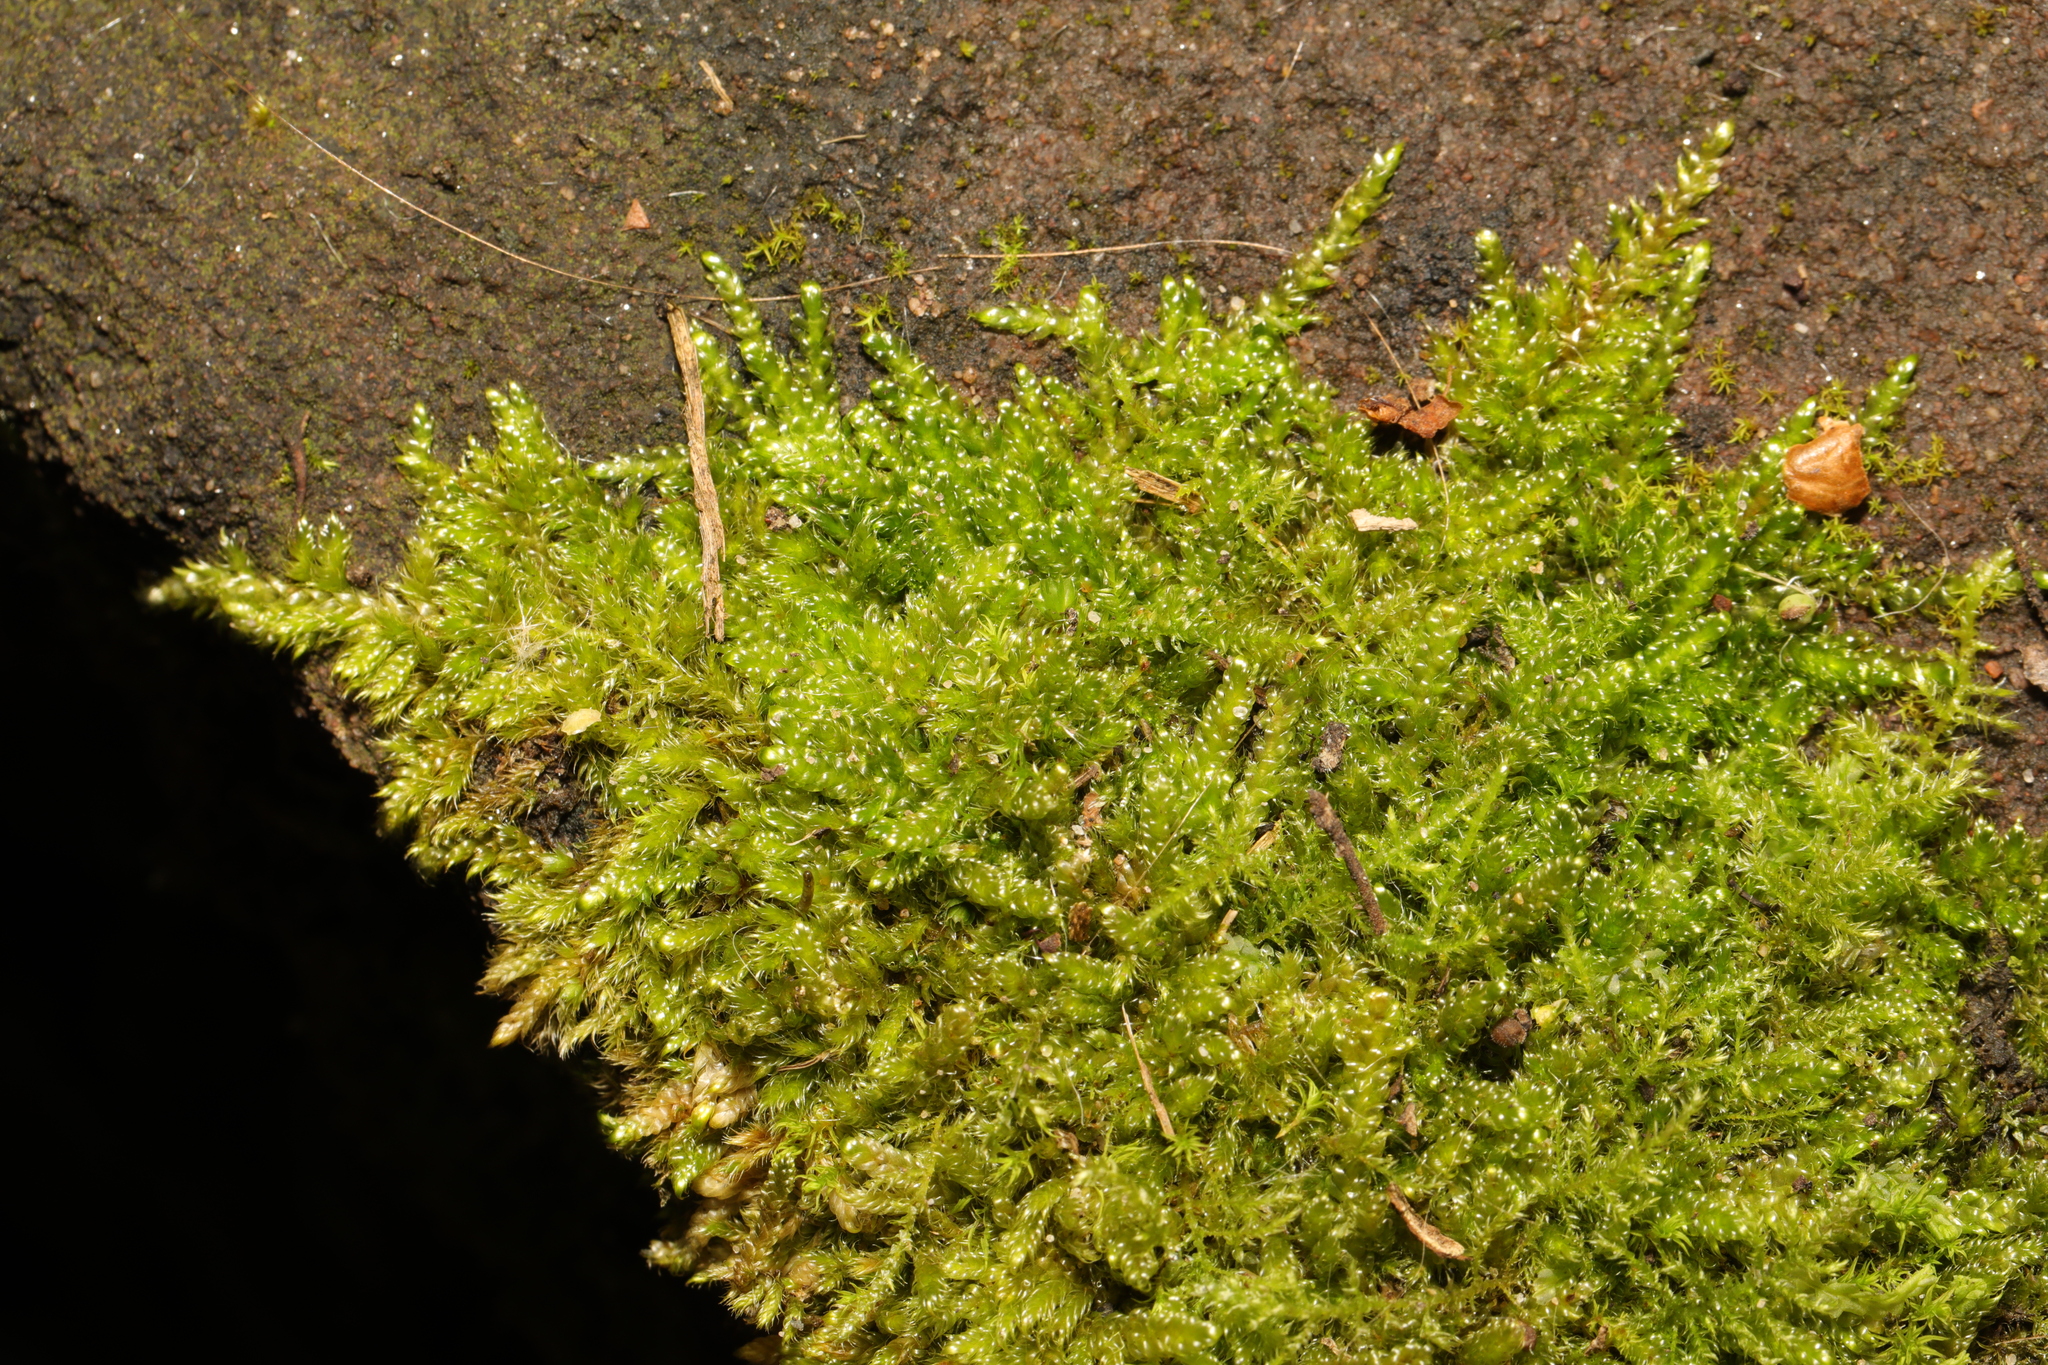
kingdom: Plantae
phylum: Bryophyta
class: Bryopsida
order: Hypnales
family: Hypnaceae
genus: Hypnum
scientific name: Hypnum cupressiforme
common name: Cypress-leaved plait-moss
